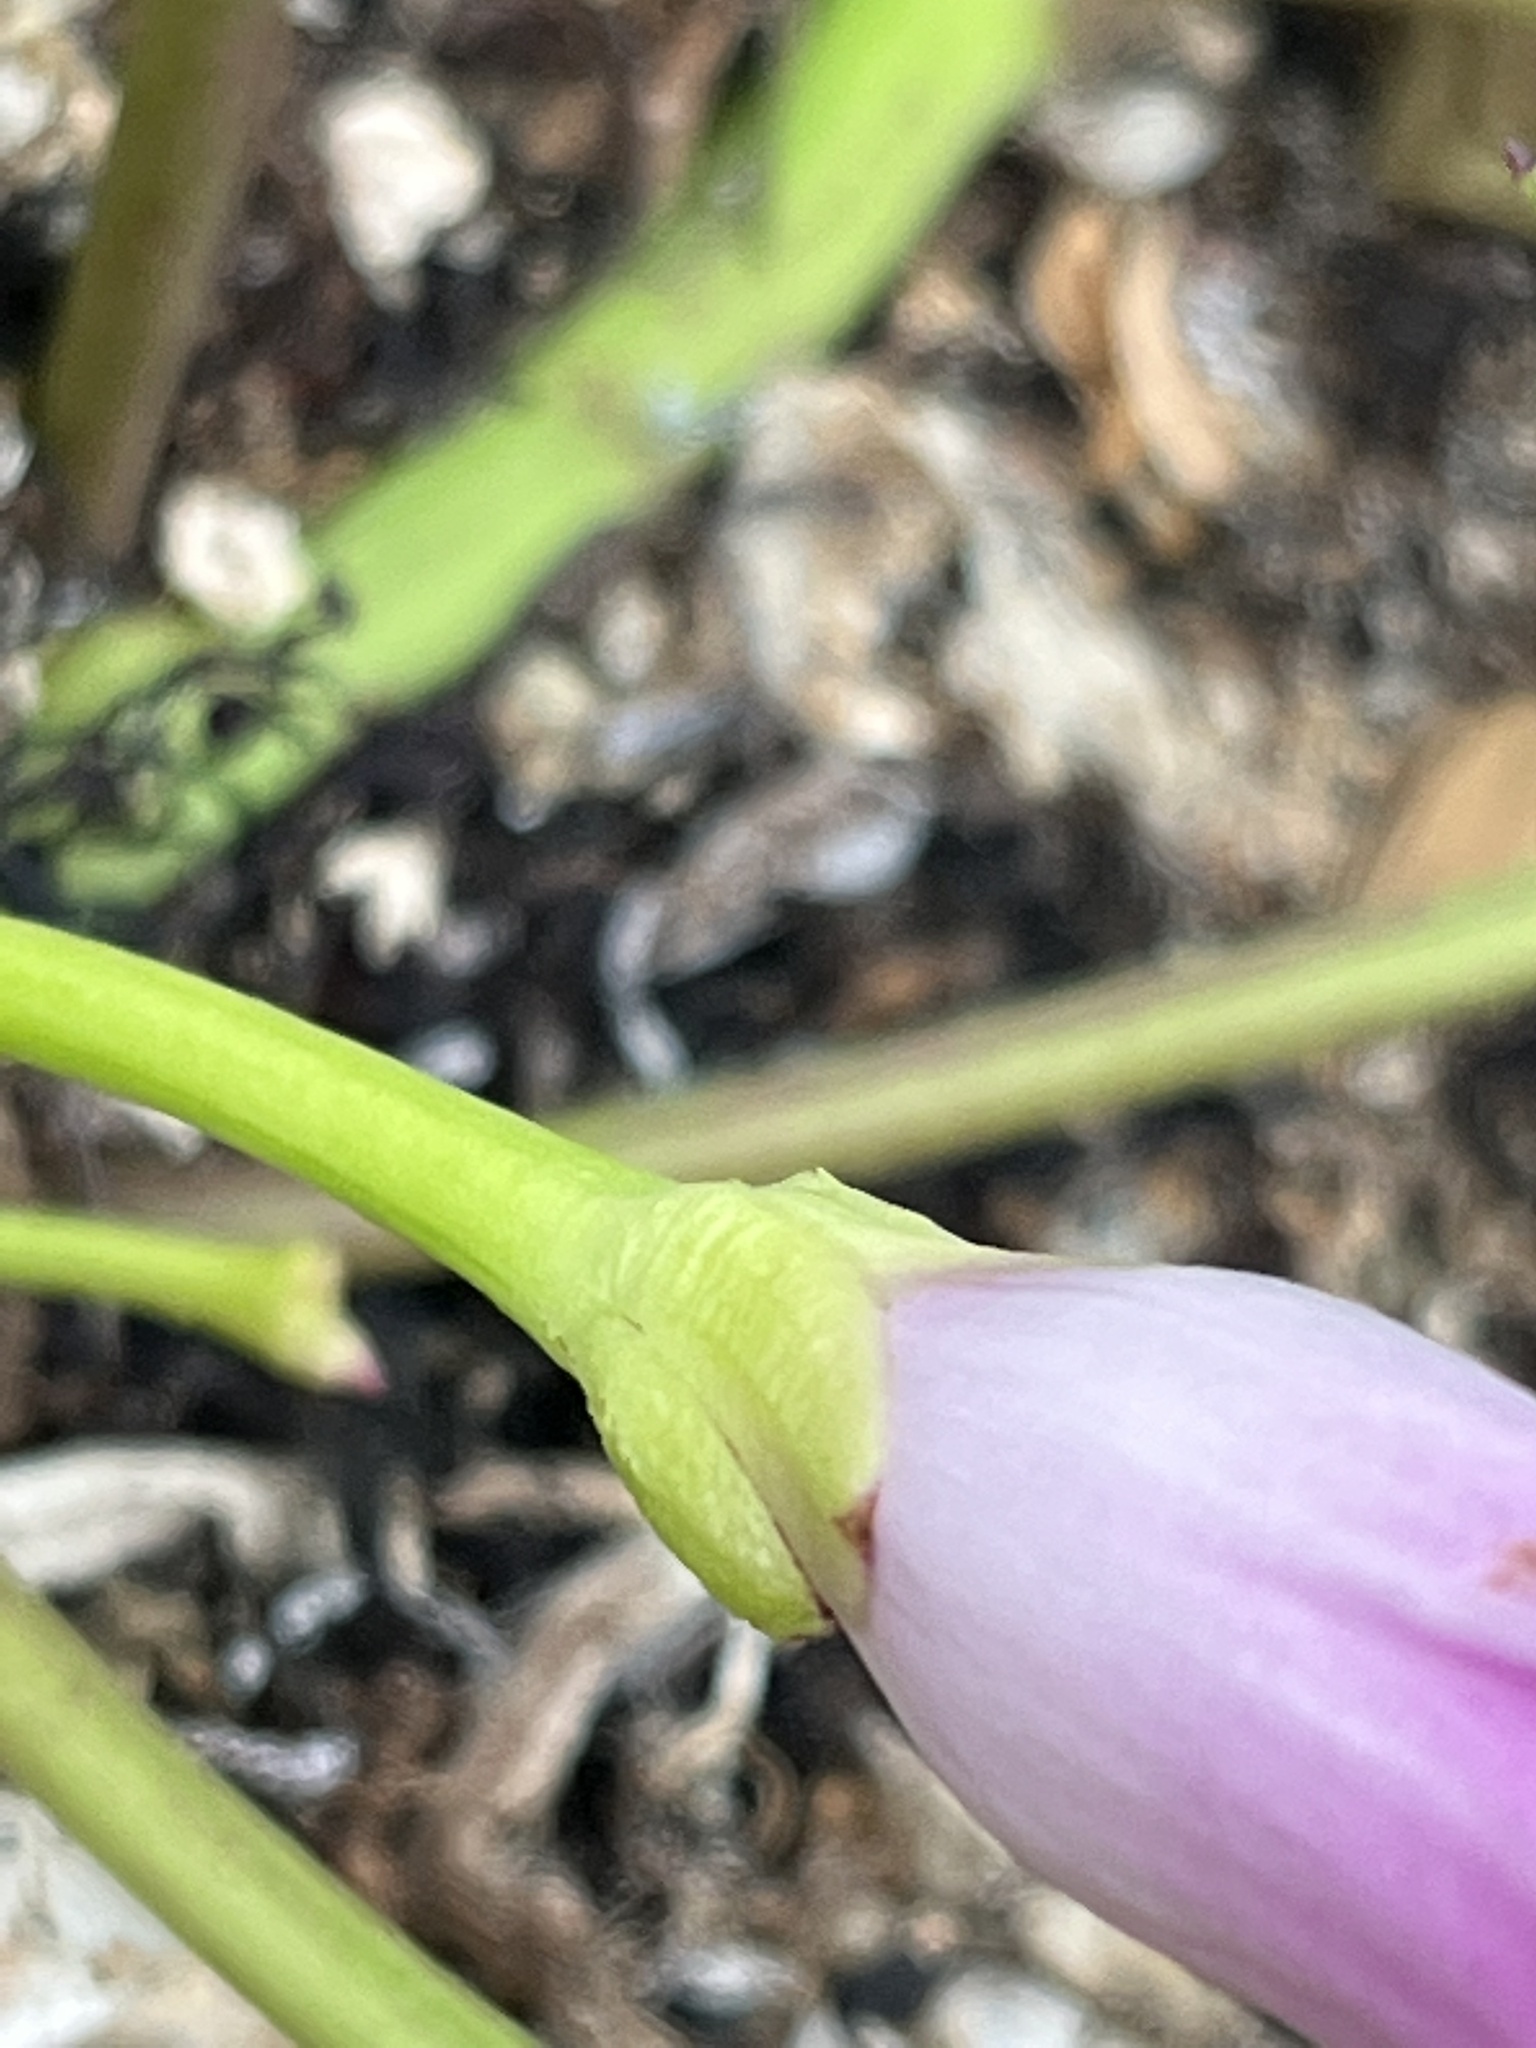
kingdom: Plantae
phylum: Tracheophyta
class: Magnoliopsida
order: Solanales
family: Convolvulaceae
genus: Ipomoea
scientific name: Ipomoea pes-caprae
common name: Beach morning glory
